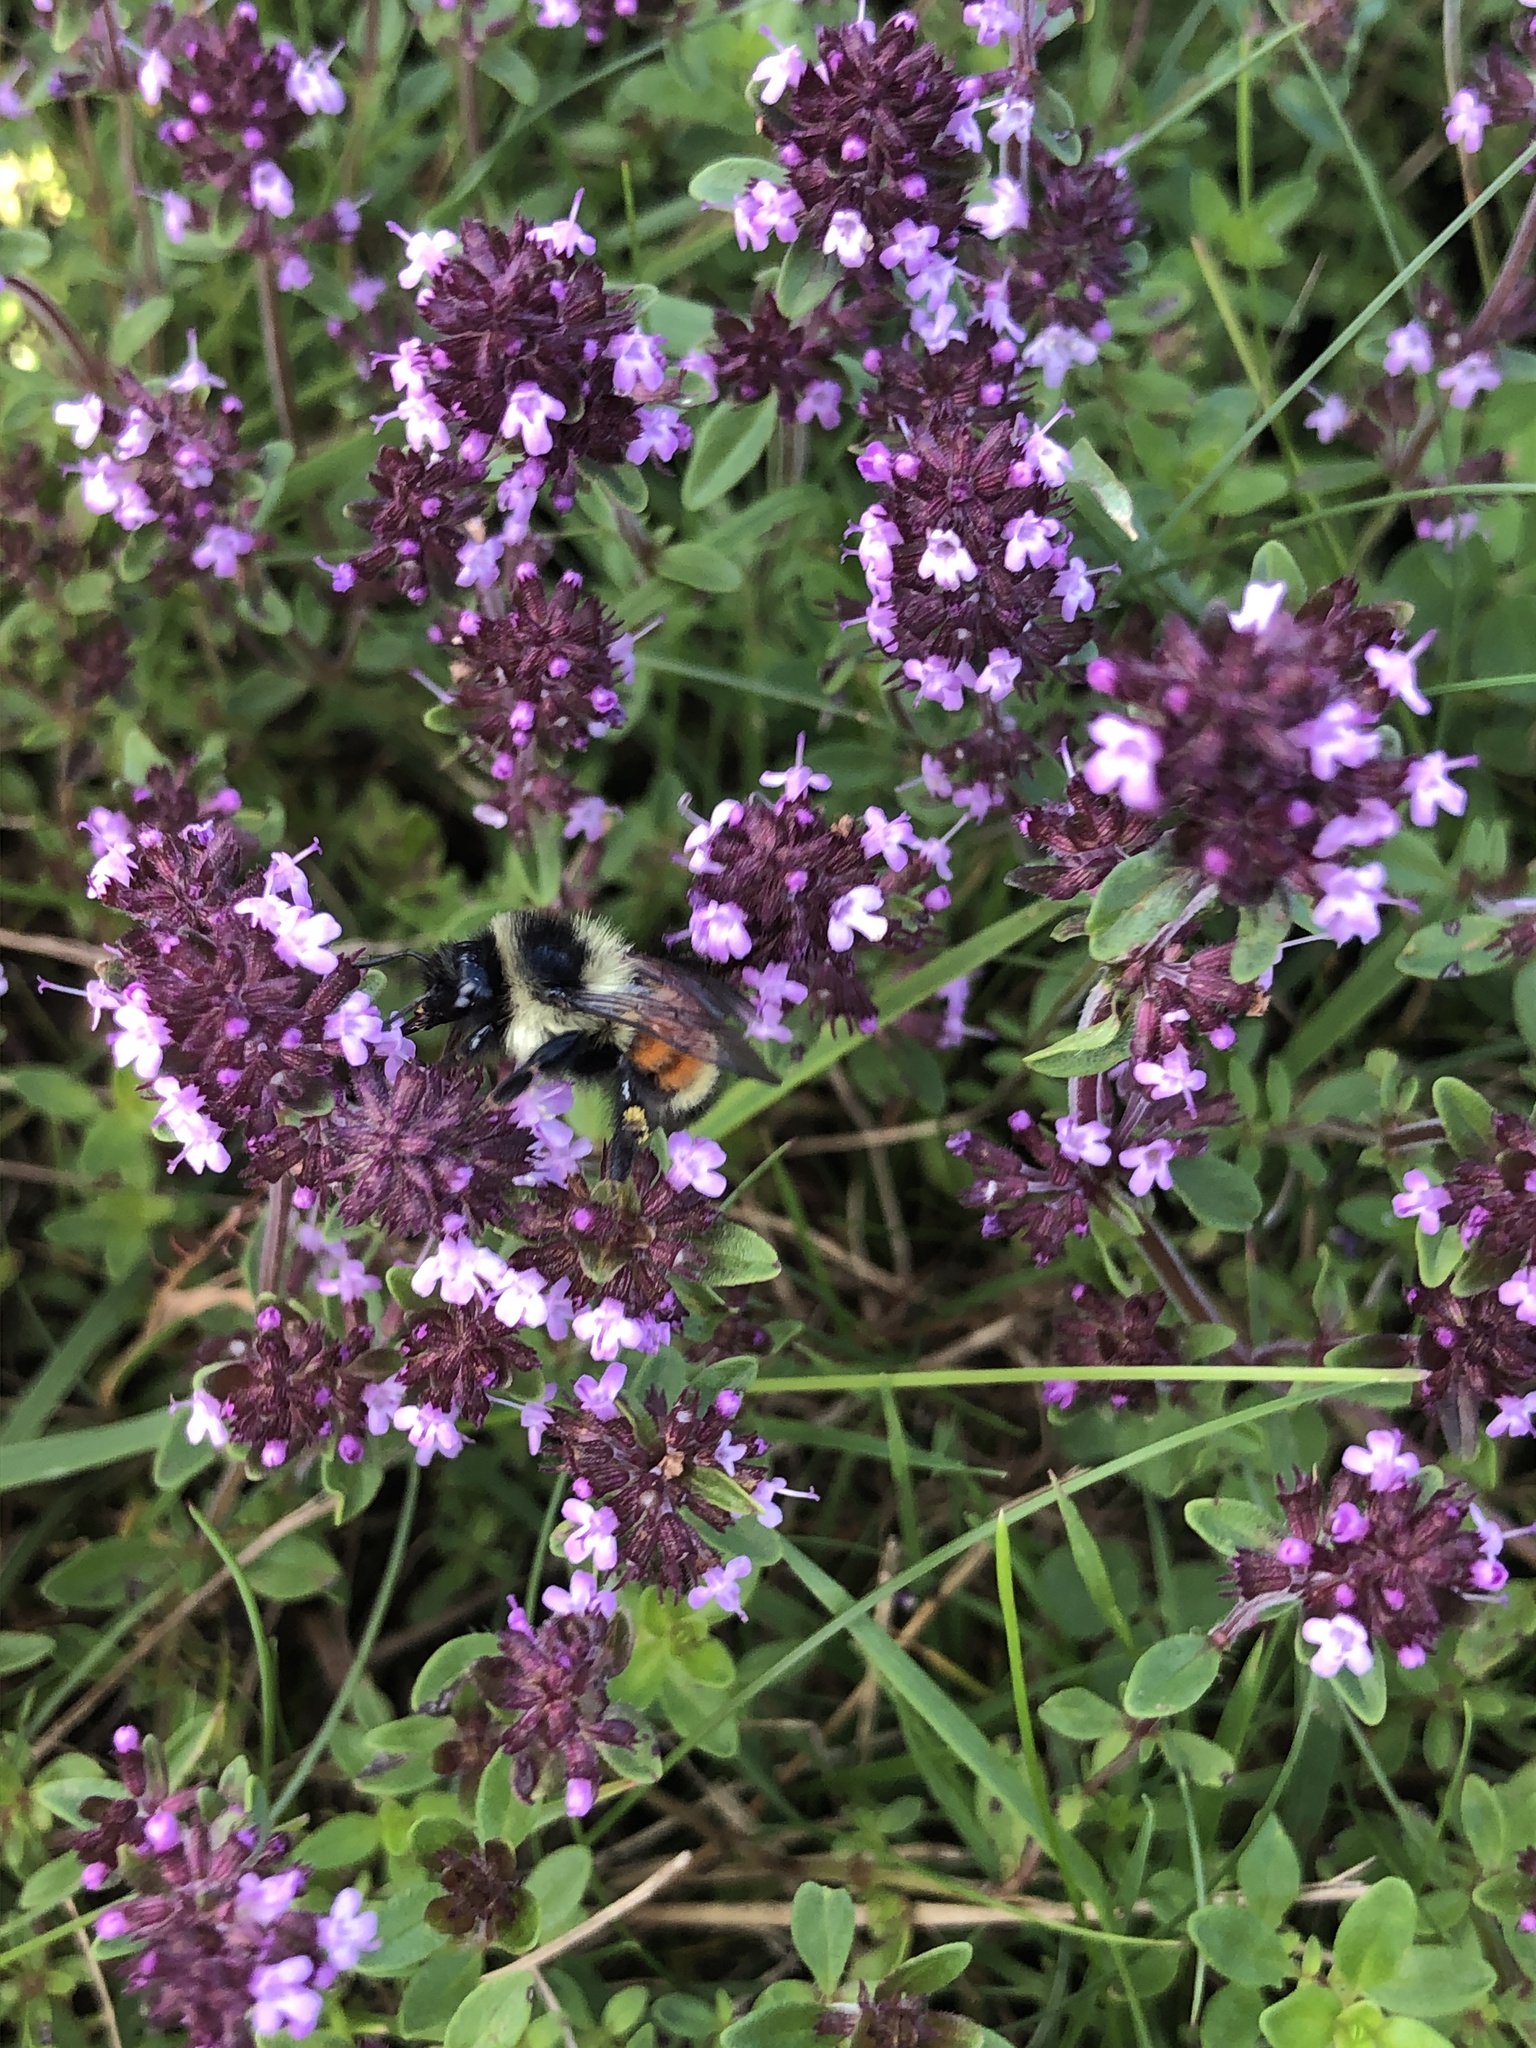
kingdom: Animalia
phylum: Arthropoda
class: Insecta
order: Hymenoptera
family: Apidae
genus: Bombus
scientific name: Bombus ternarius
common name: Tri-colored bumble bee
